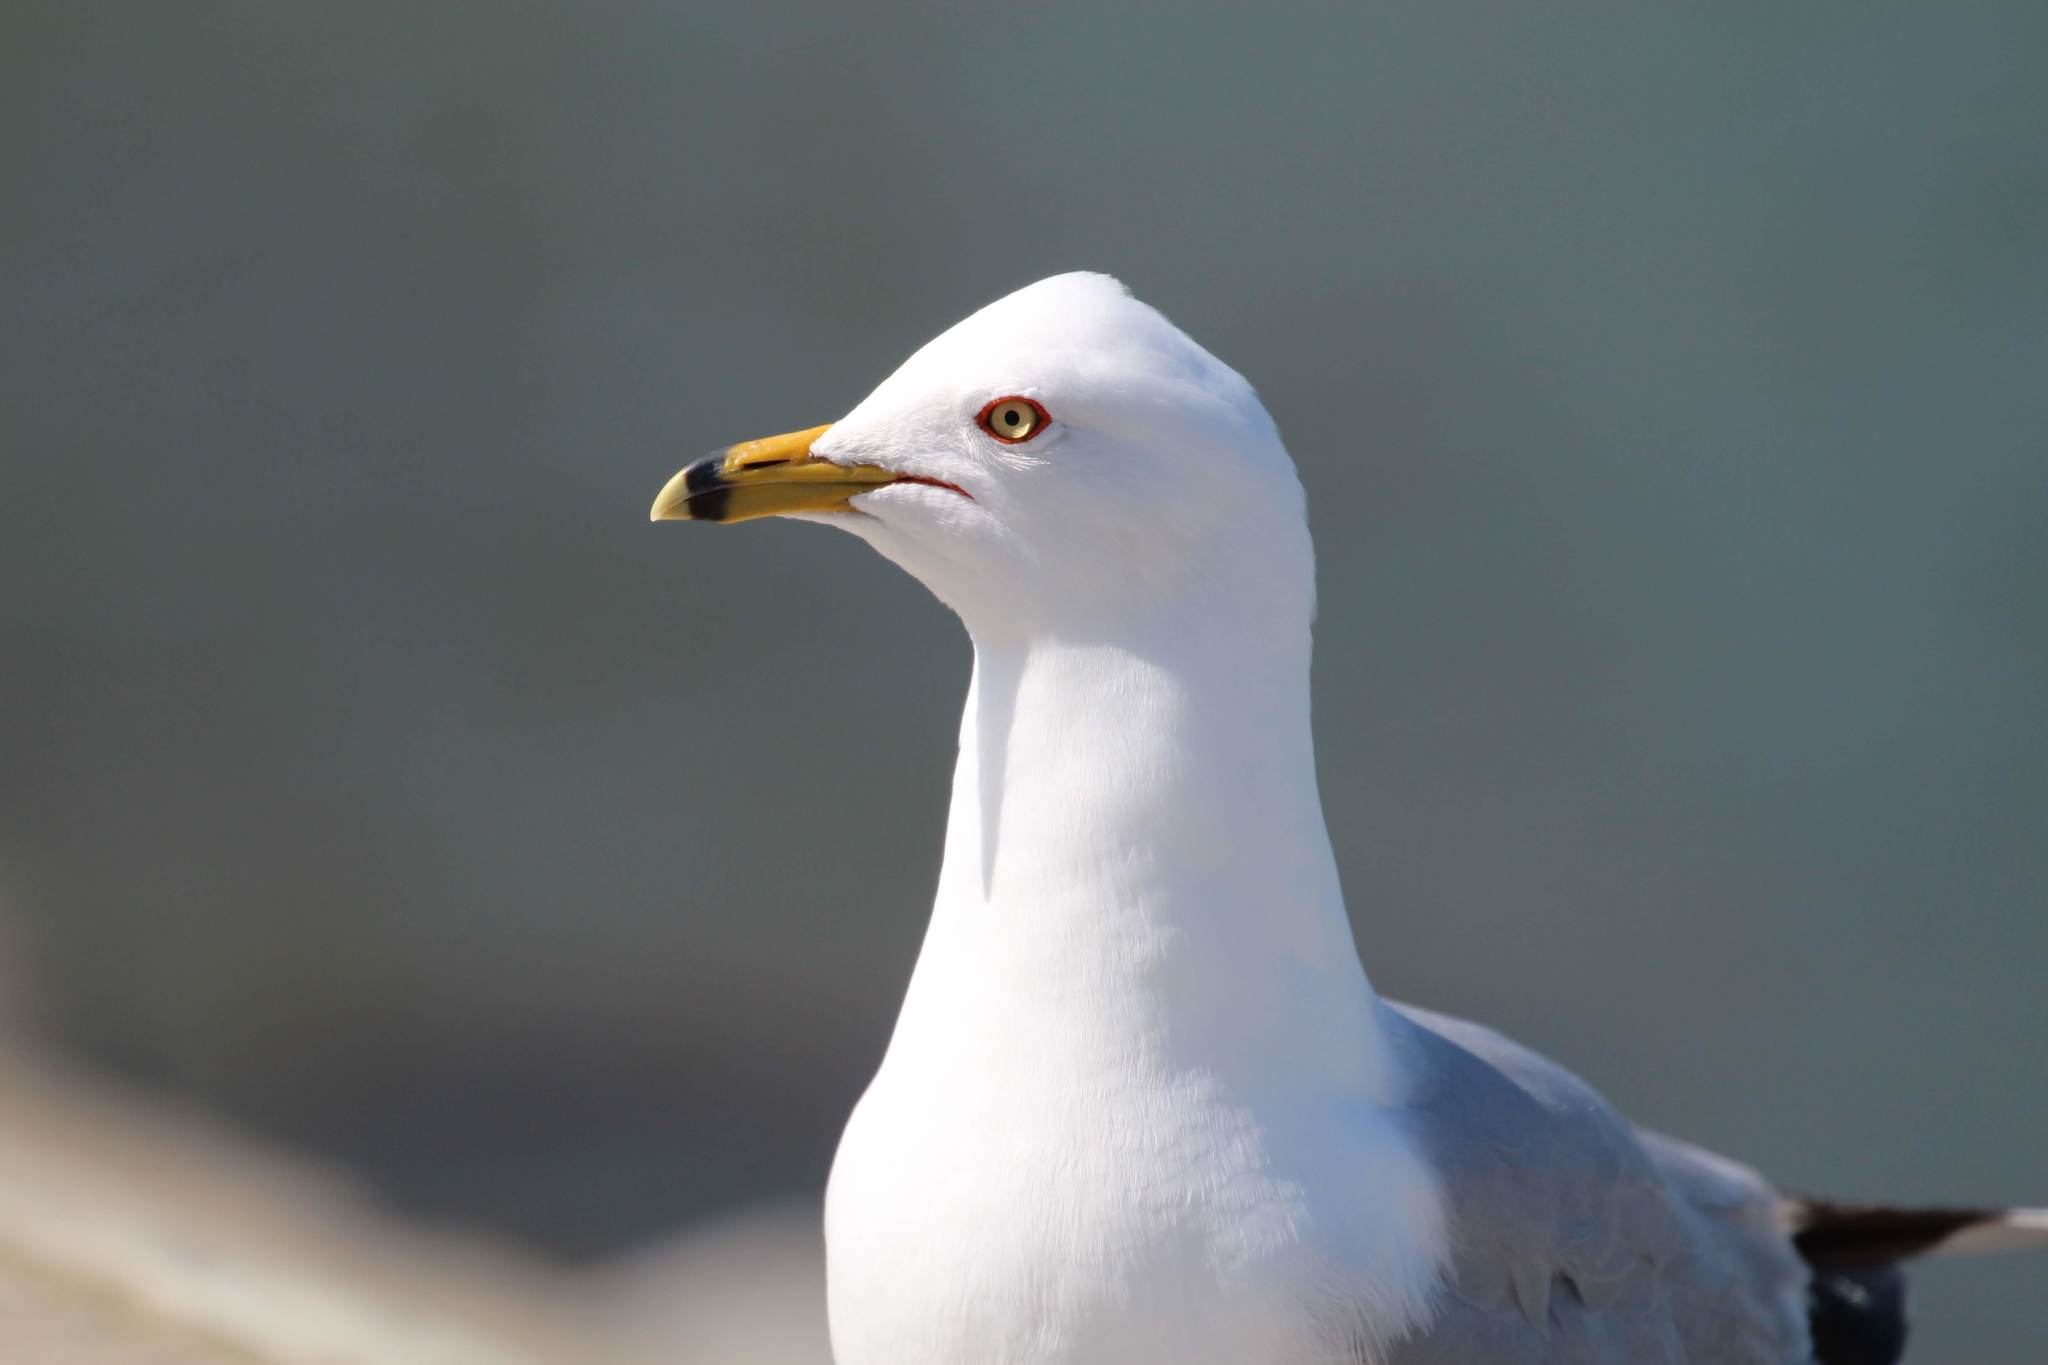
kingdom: Animalia
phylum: Chordata
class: Aves
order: Charadriiformes
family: Laridae
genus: Larus
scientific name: Larus delawarensis
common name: Ring-billed gull
